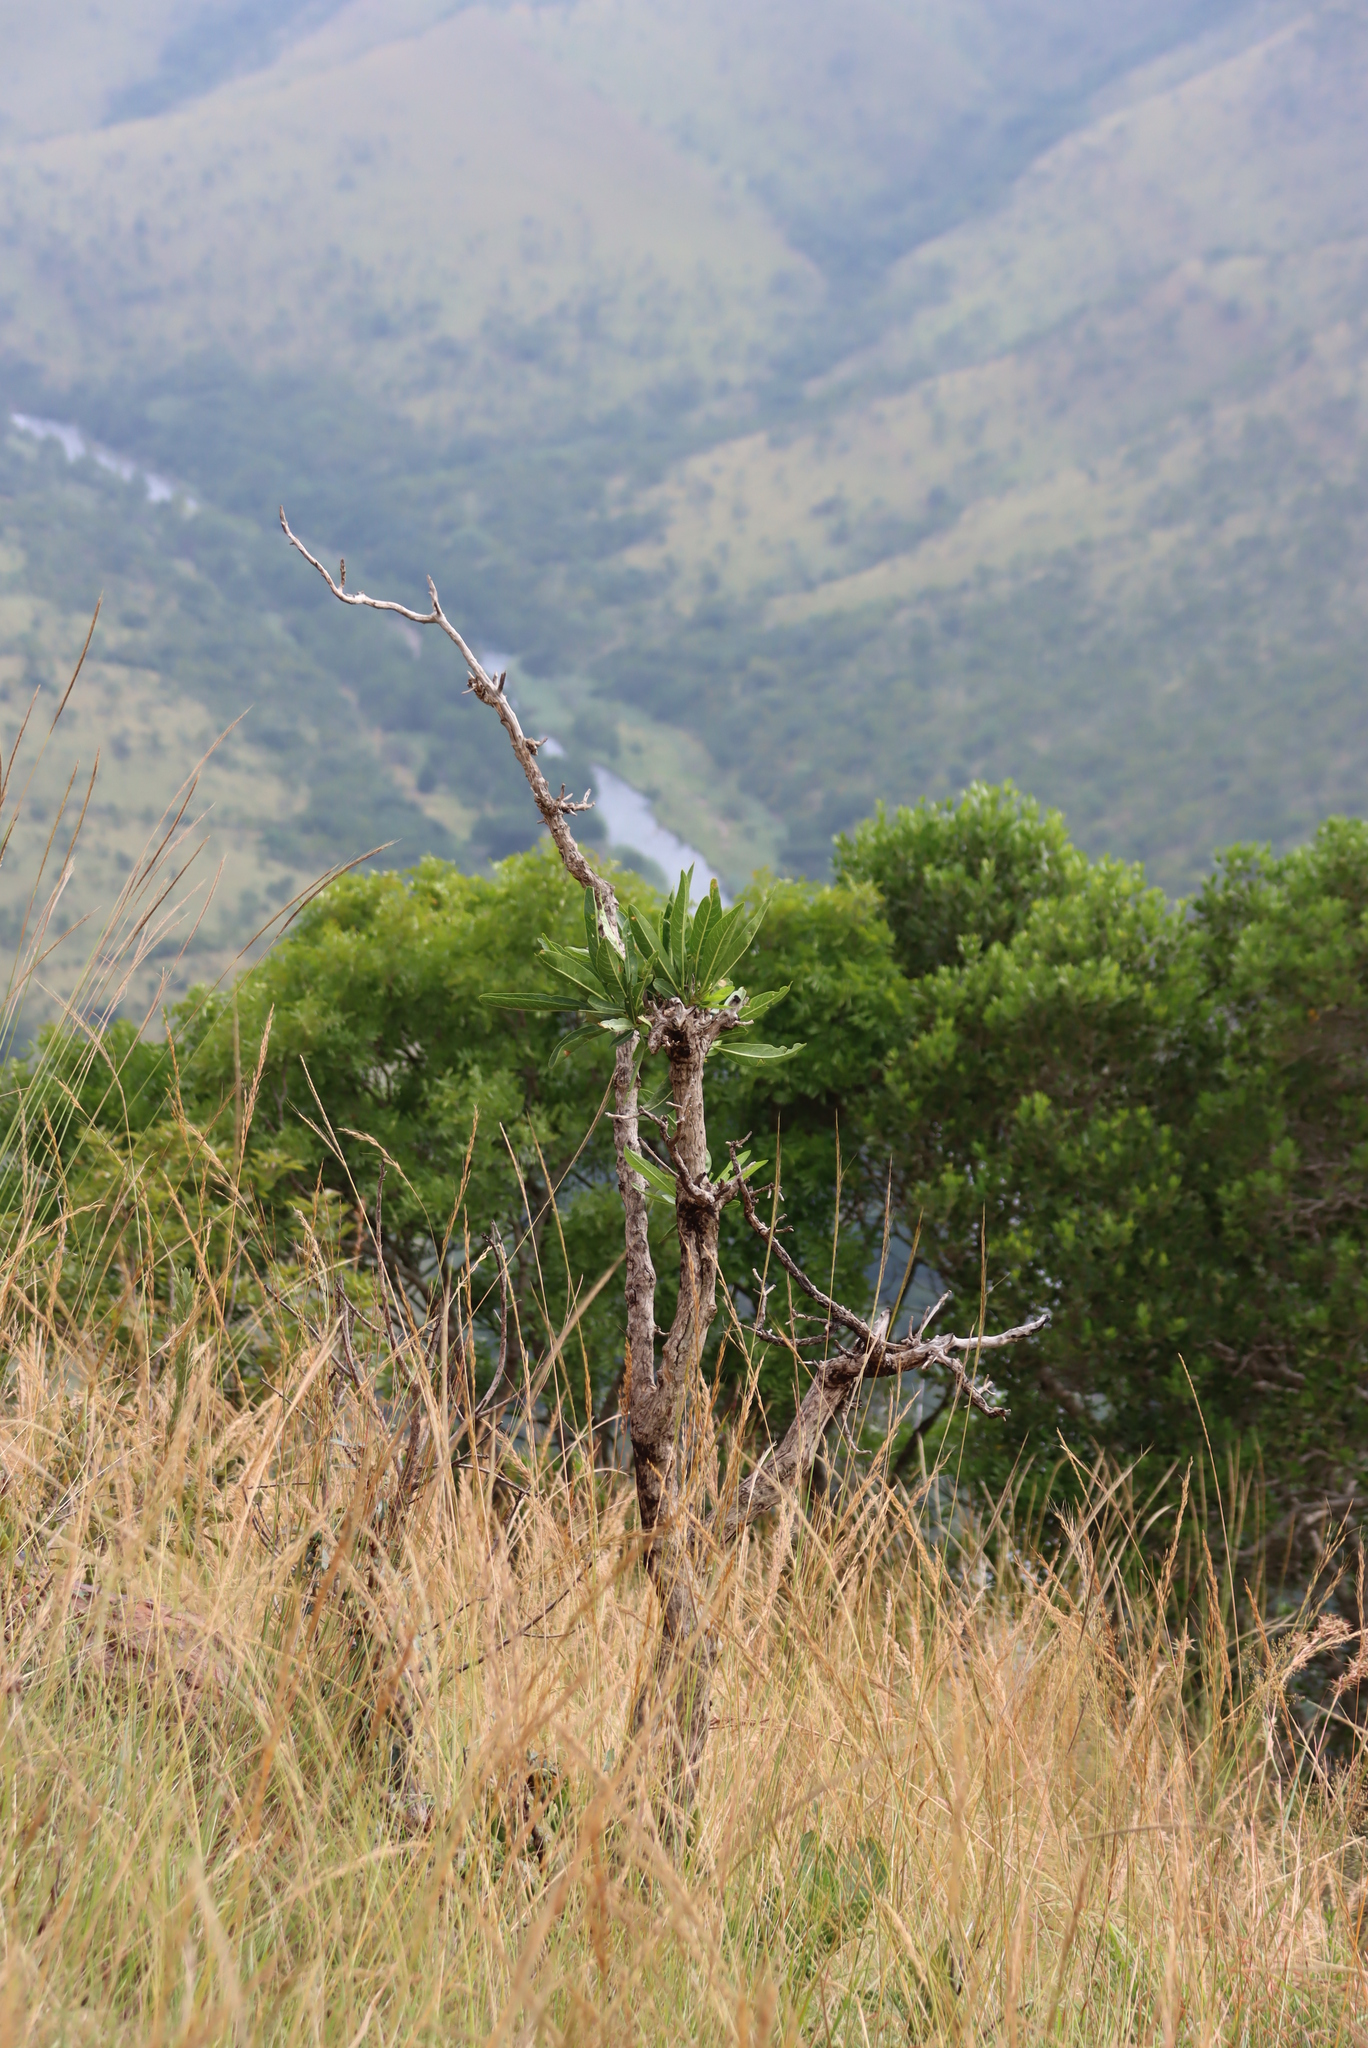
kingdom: Plantae
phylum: Tracheophyta
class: Magnoliopsida
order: Gentianales
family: Rubiaceae
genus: Pavetta
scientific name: Pavetta edentula
